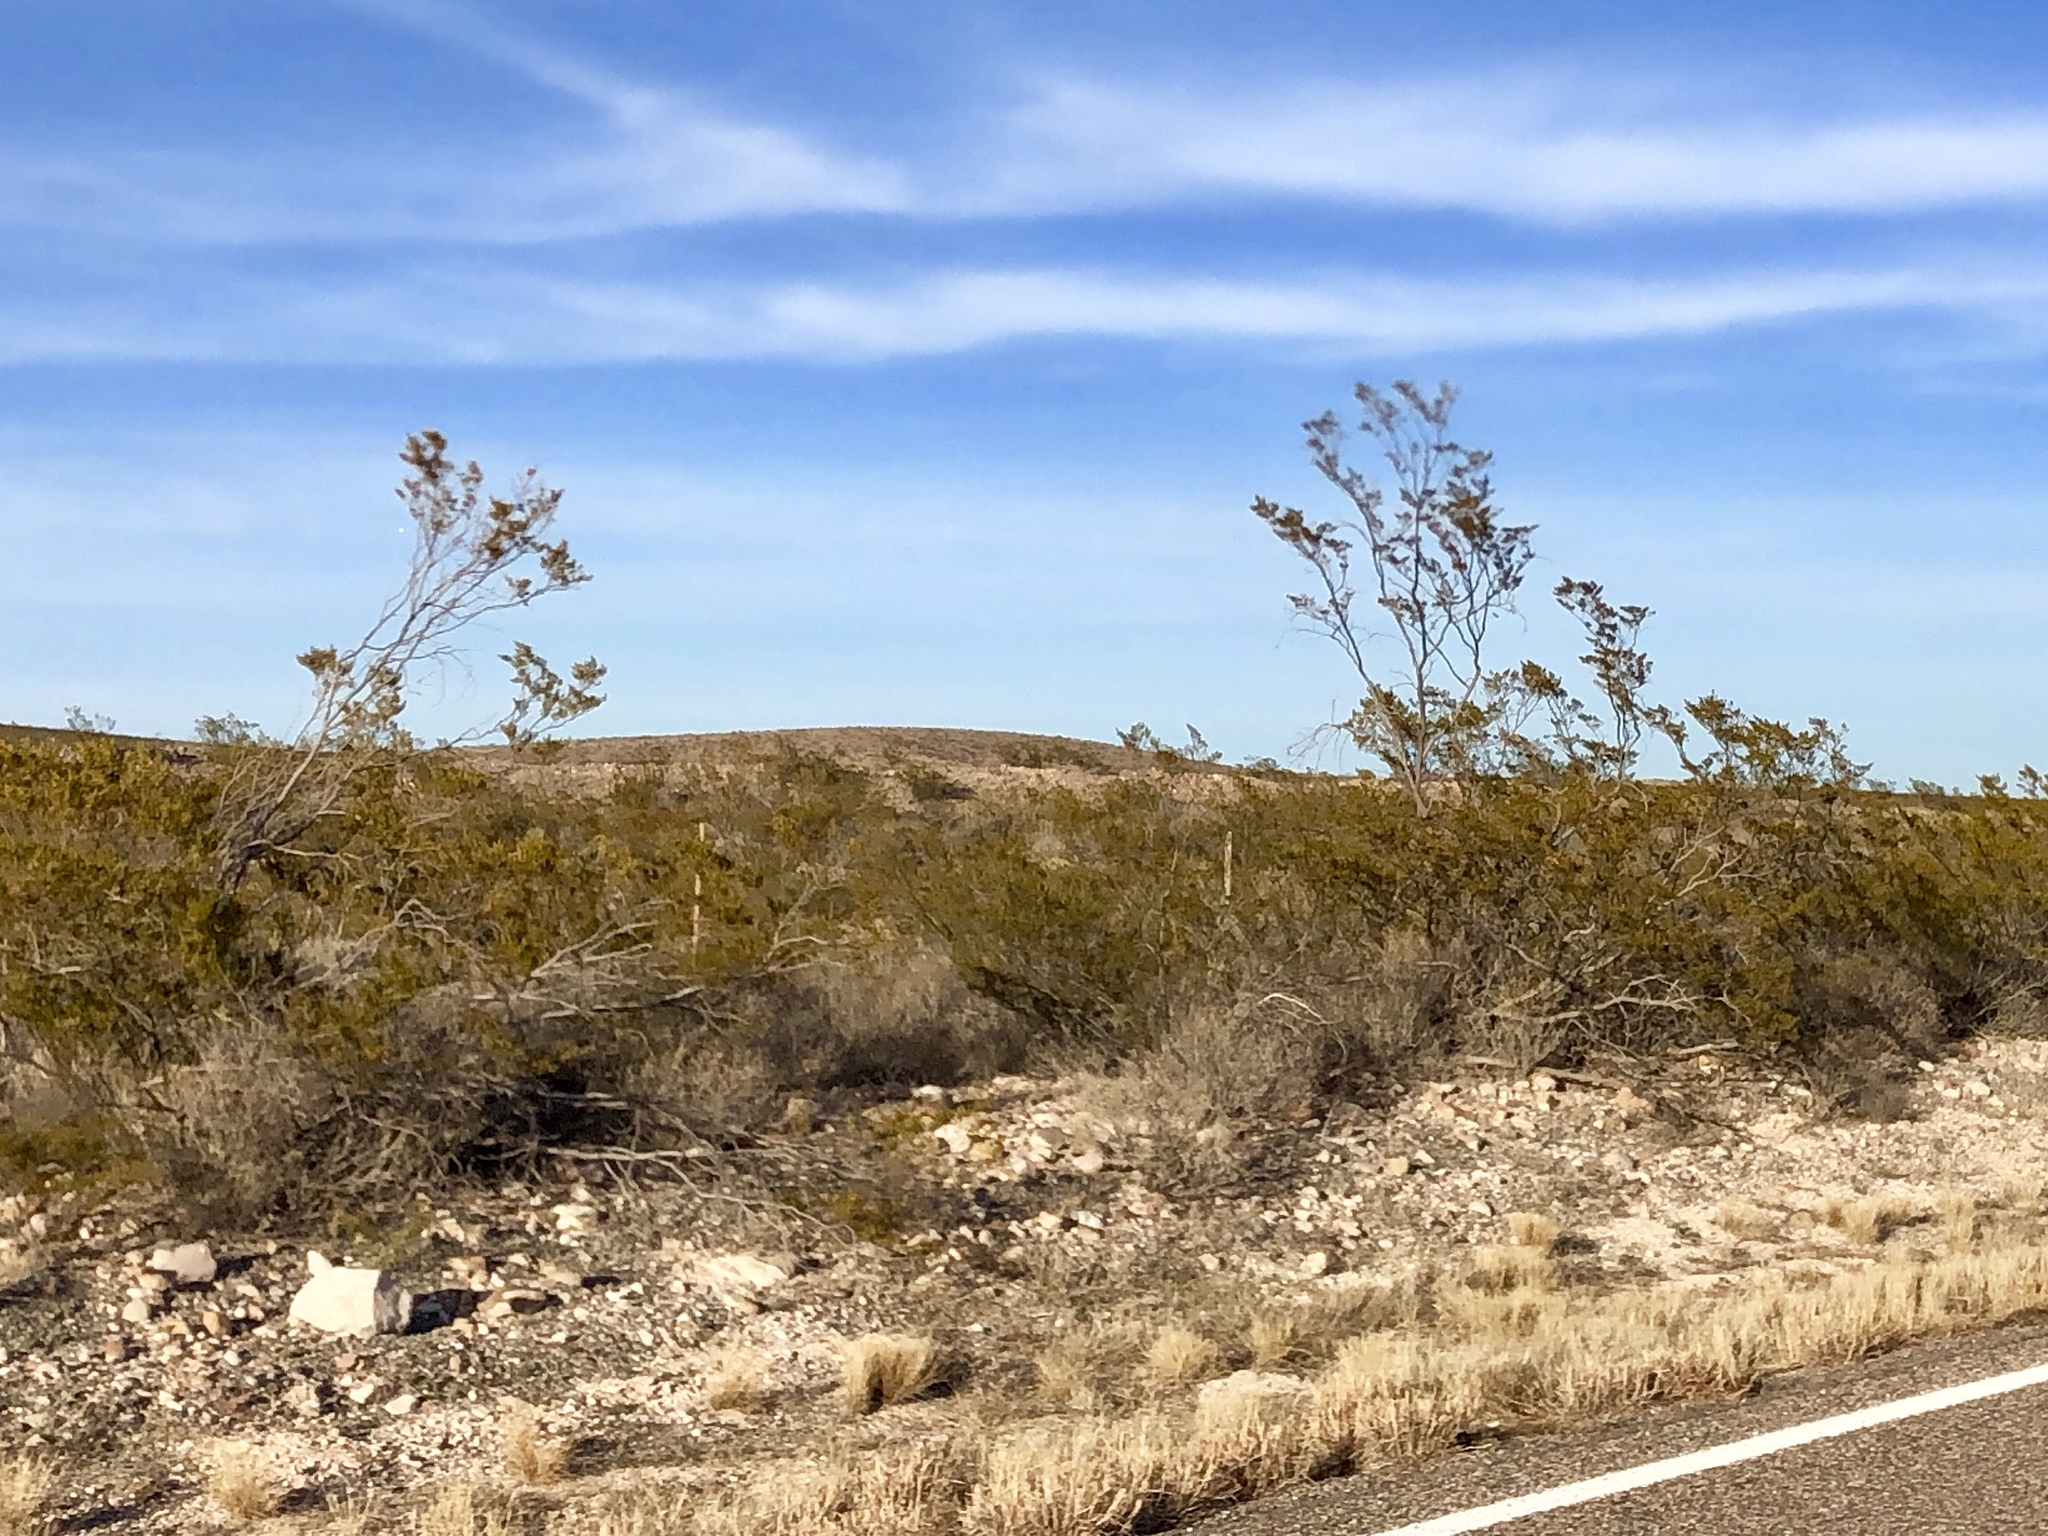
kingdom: Plantae
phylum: Tracheophyta
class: Magnoliopsida
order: Zygophyllales
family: Zygophyllaceae
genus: Larrea
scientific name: Larrea tridentata
